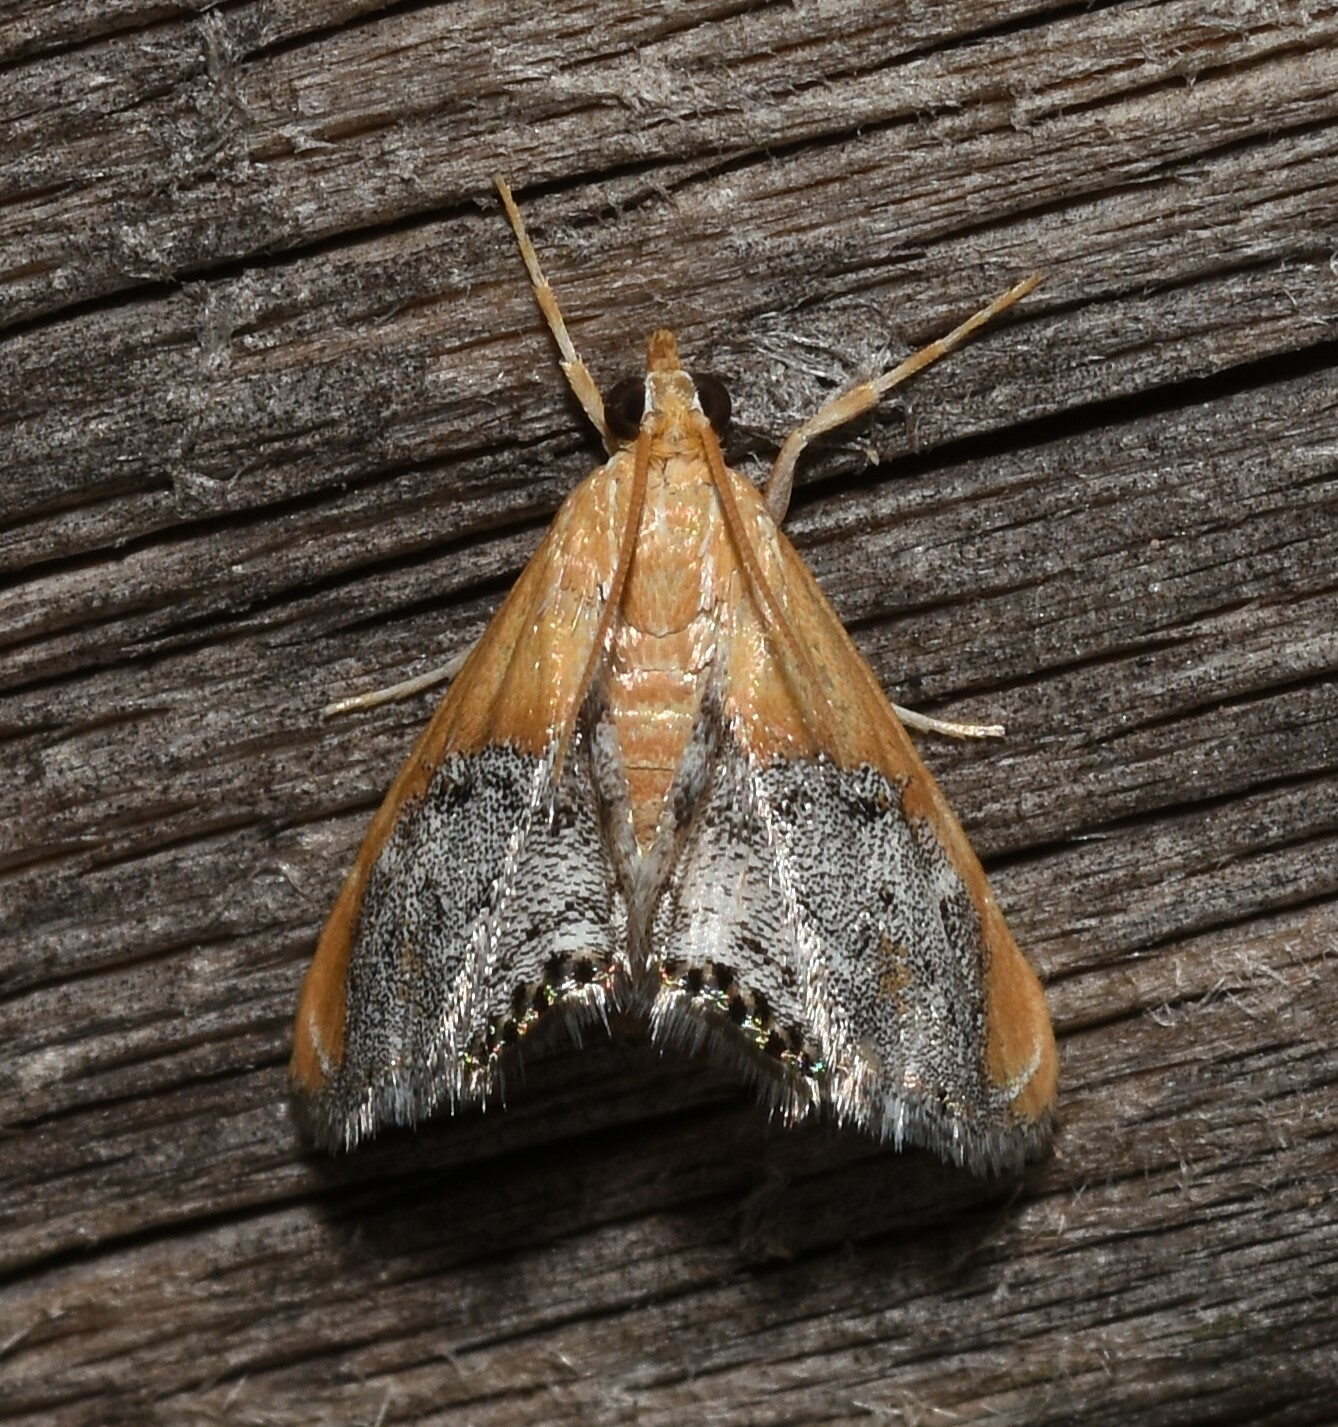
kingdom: Animalia
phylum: Arthropoda
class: Insecta
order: Lepidoptera
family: Crambidae
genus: Chalcoela
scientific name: Chalcoela iphitalis
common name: Sooty-winged chalcoela moth
